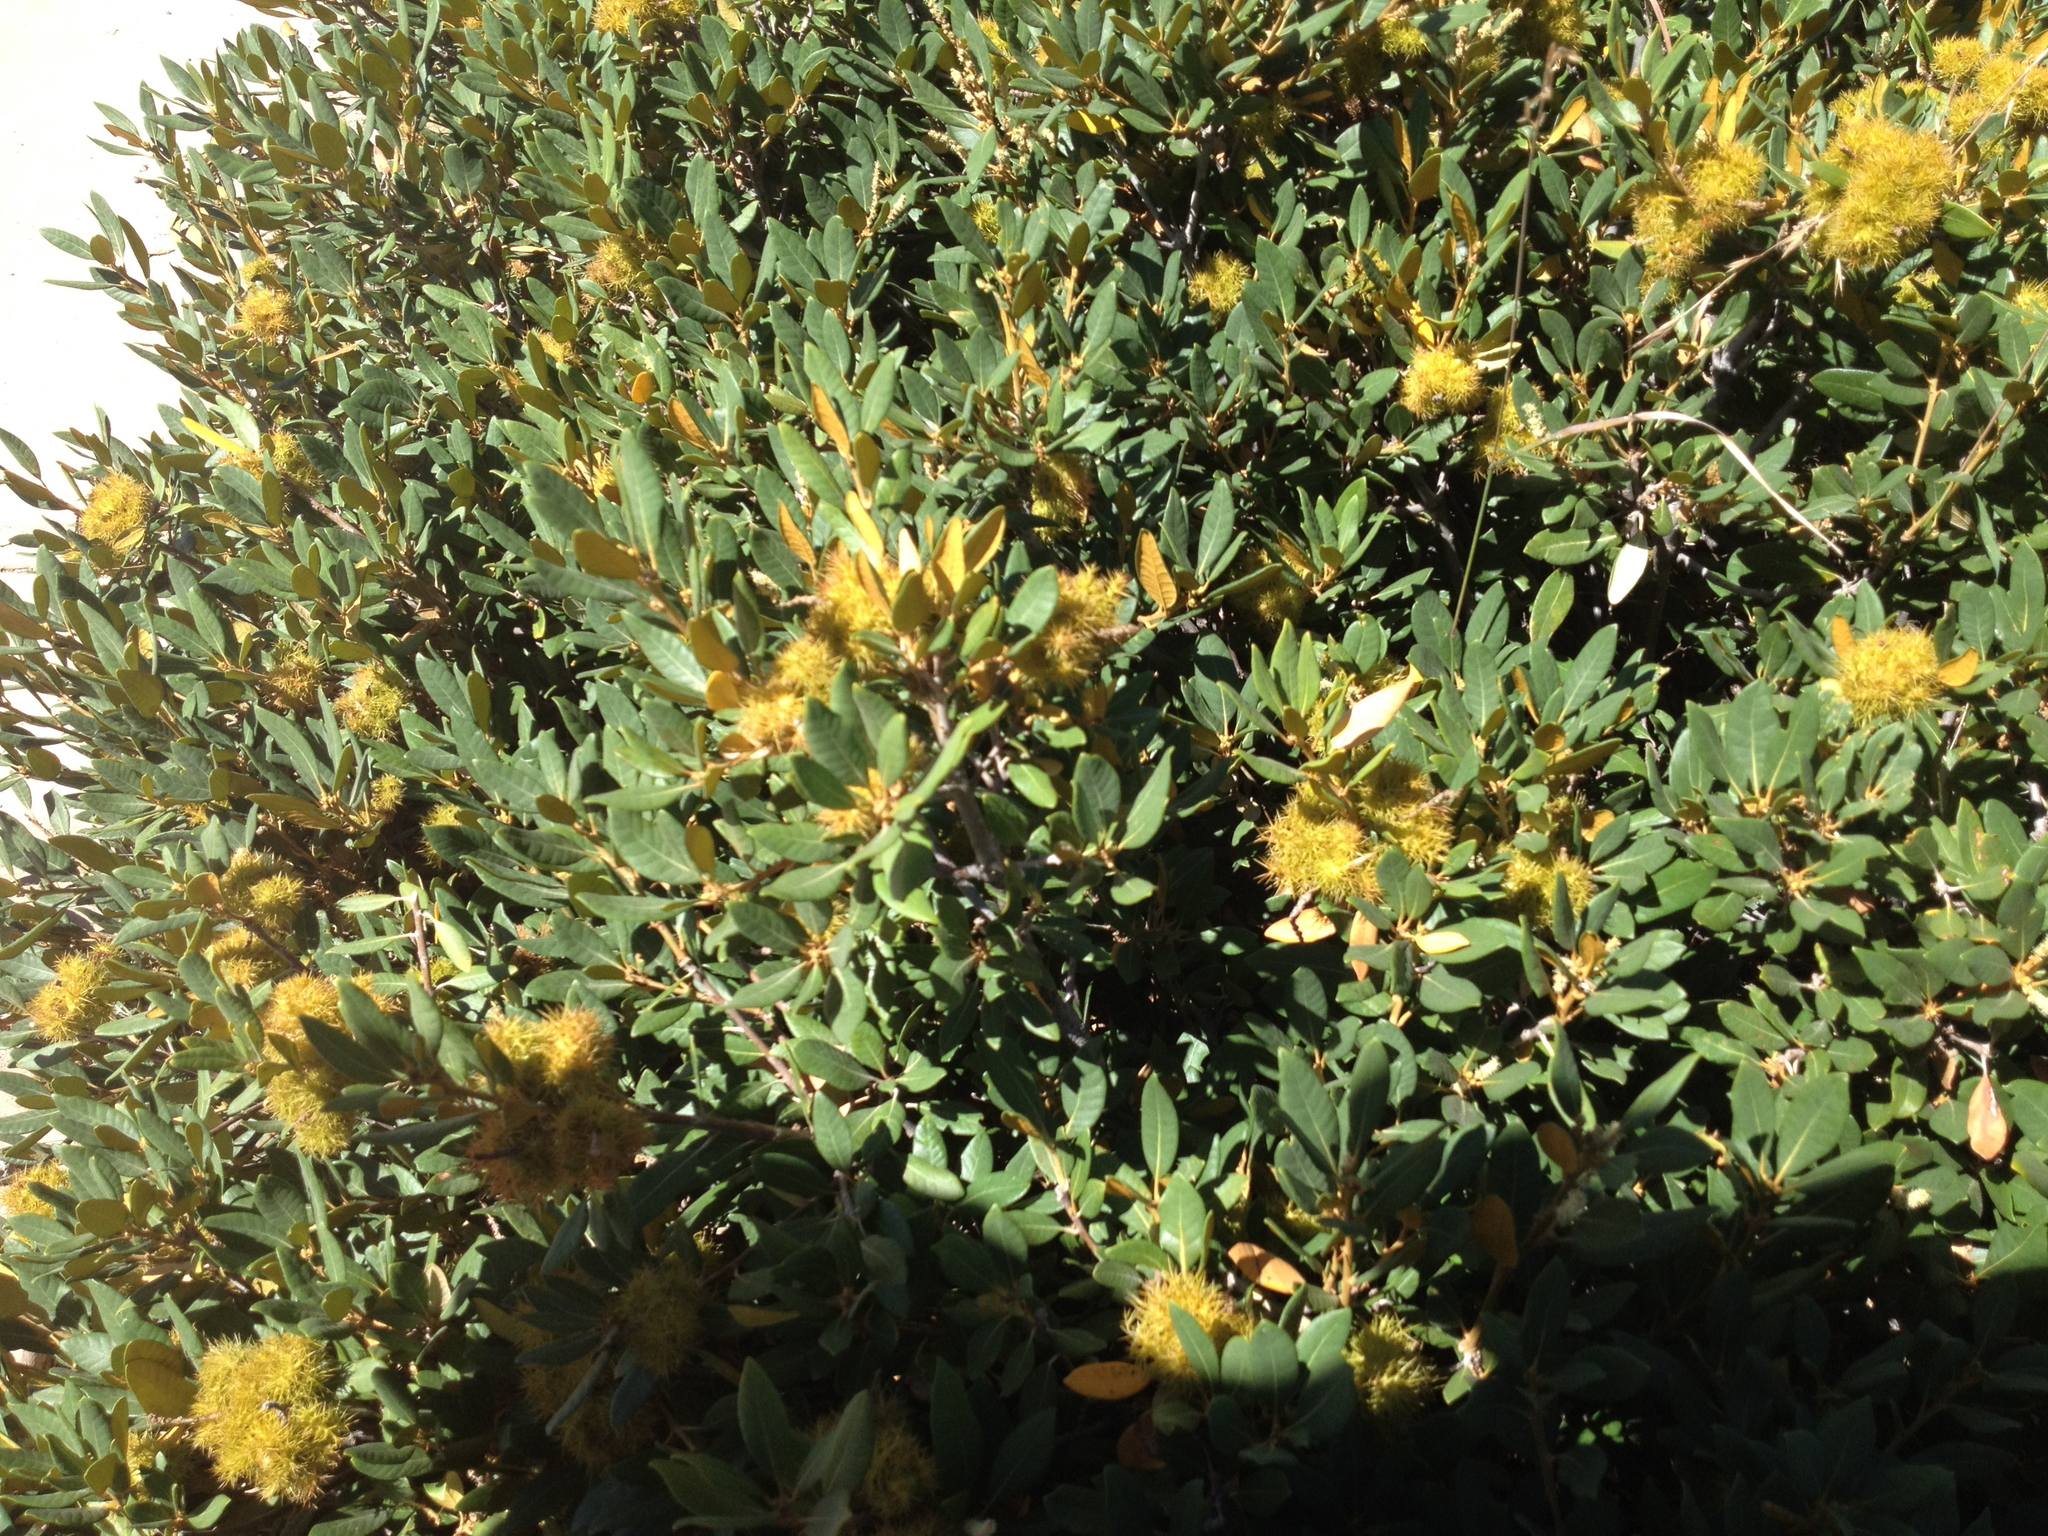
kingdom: Plantae
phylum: Tracheophyta
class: Magnoliopsida
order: Fagales
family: Fagaceae
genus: Chrysolepis
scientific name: Chrysolepis sempervirens
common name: Bush chinquapin
